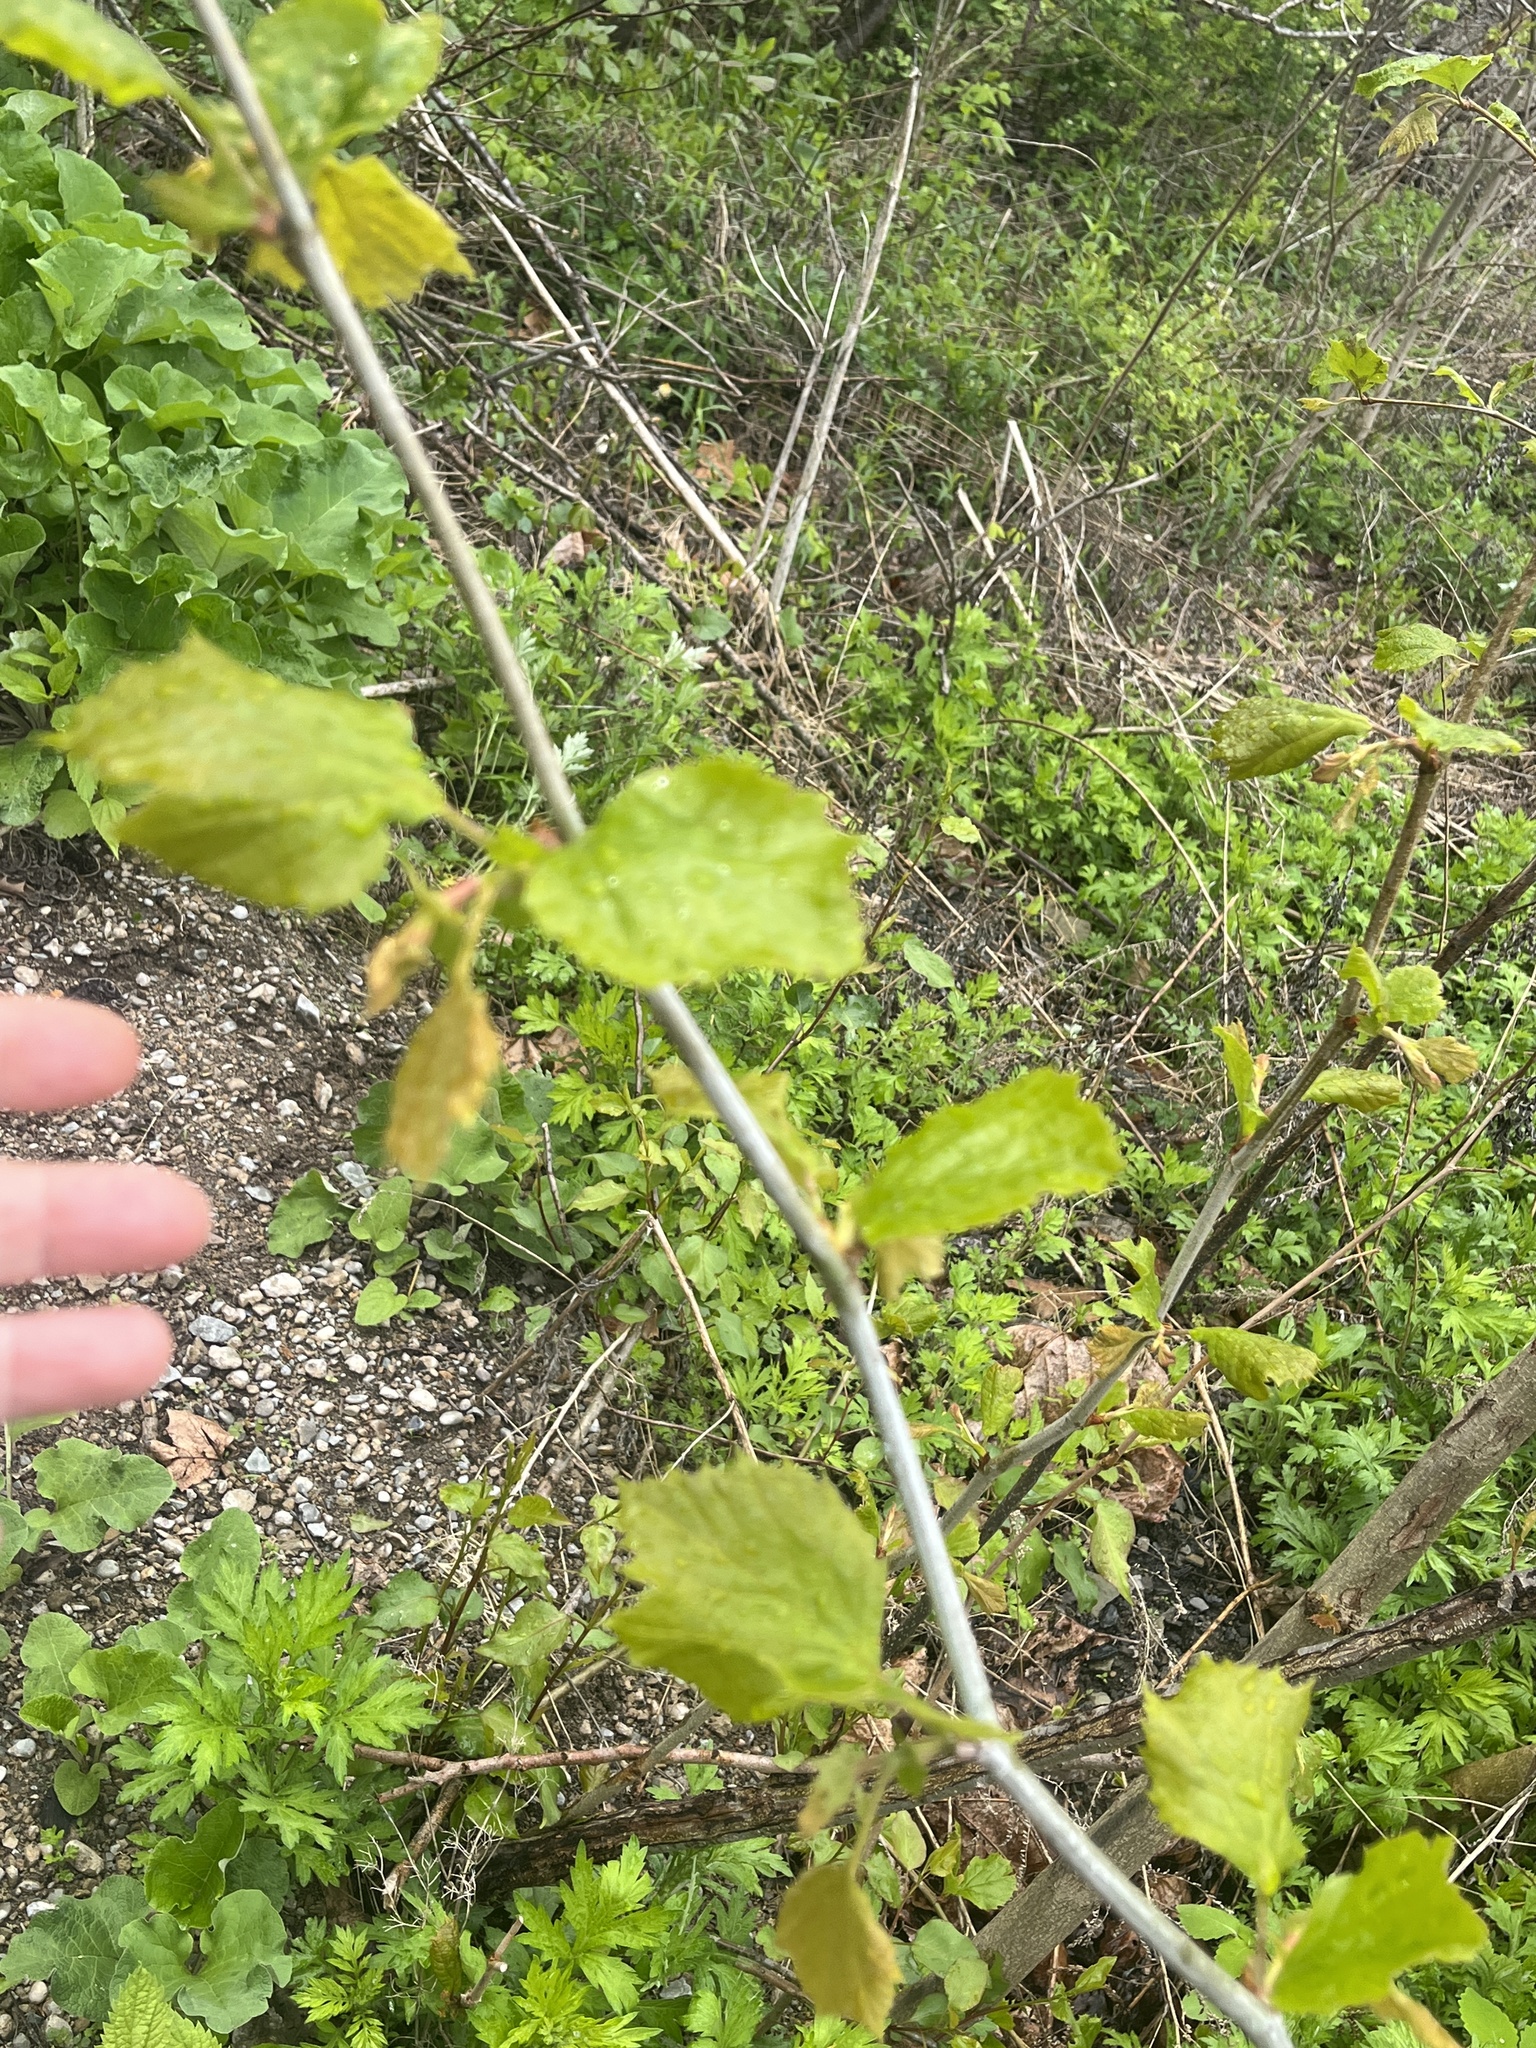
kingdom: Plantae
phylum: Tracheophyta
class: Magnoliopsida
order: Proteales
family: Platanaceae
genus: Platanus
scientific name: Platanus occidentalis
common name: American sycamore
